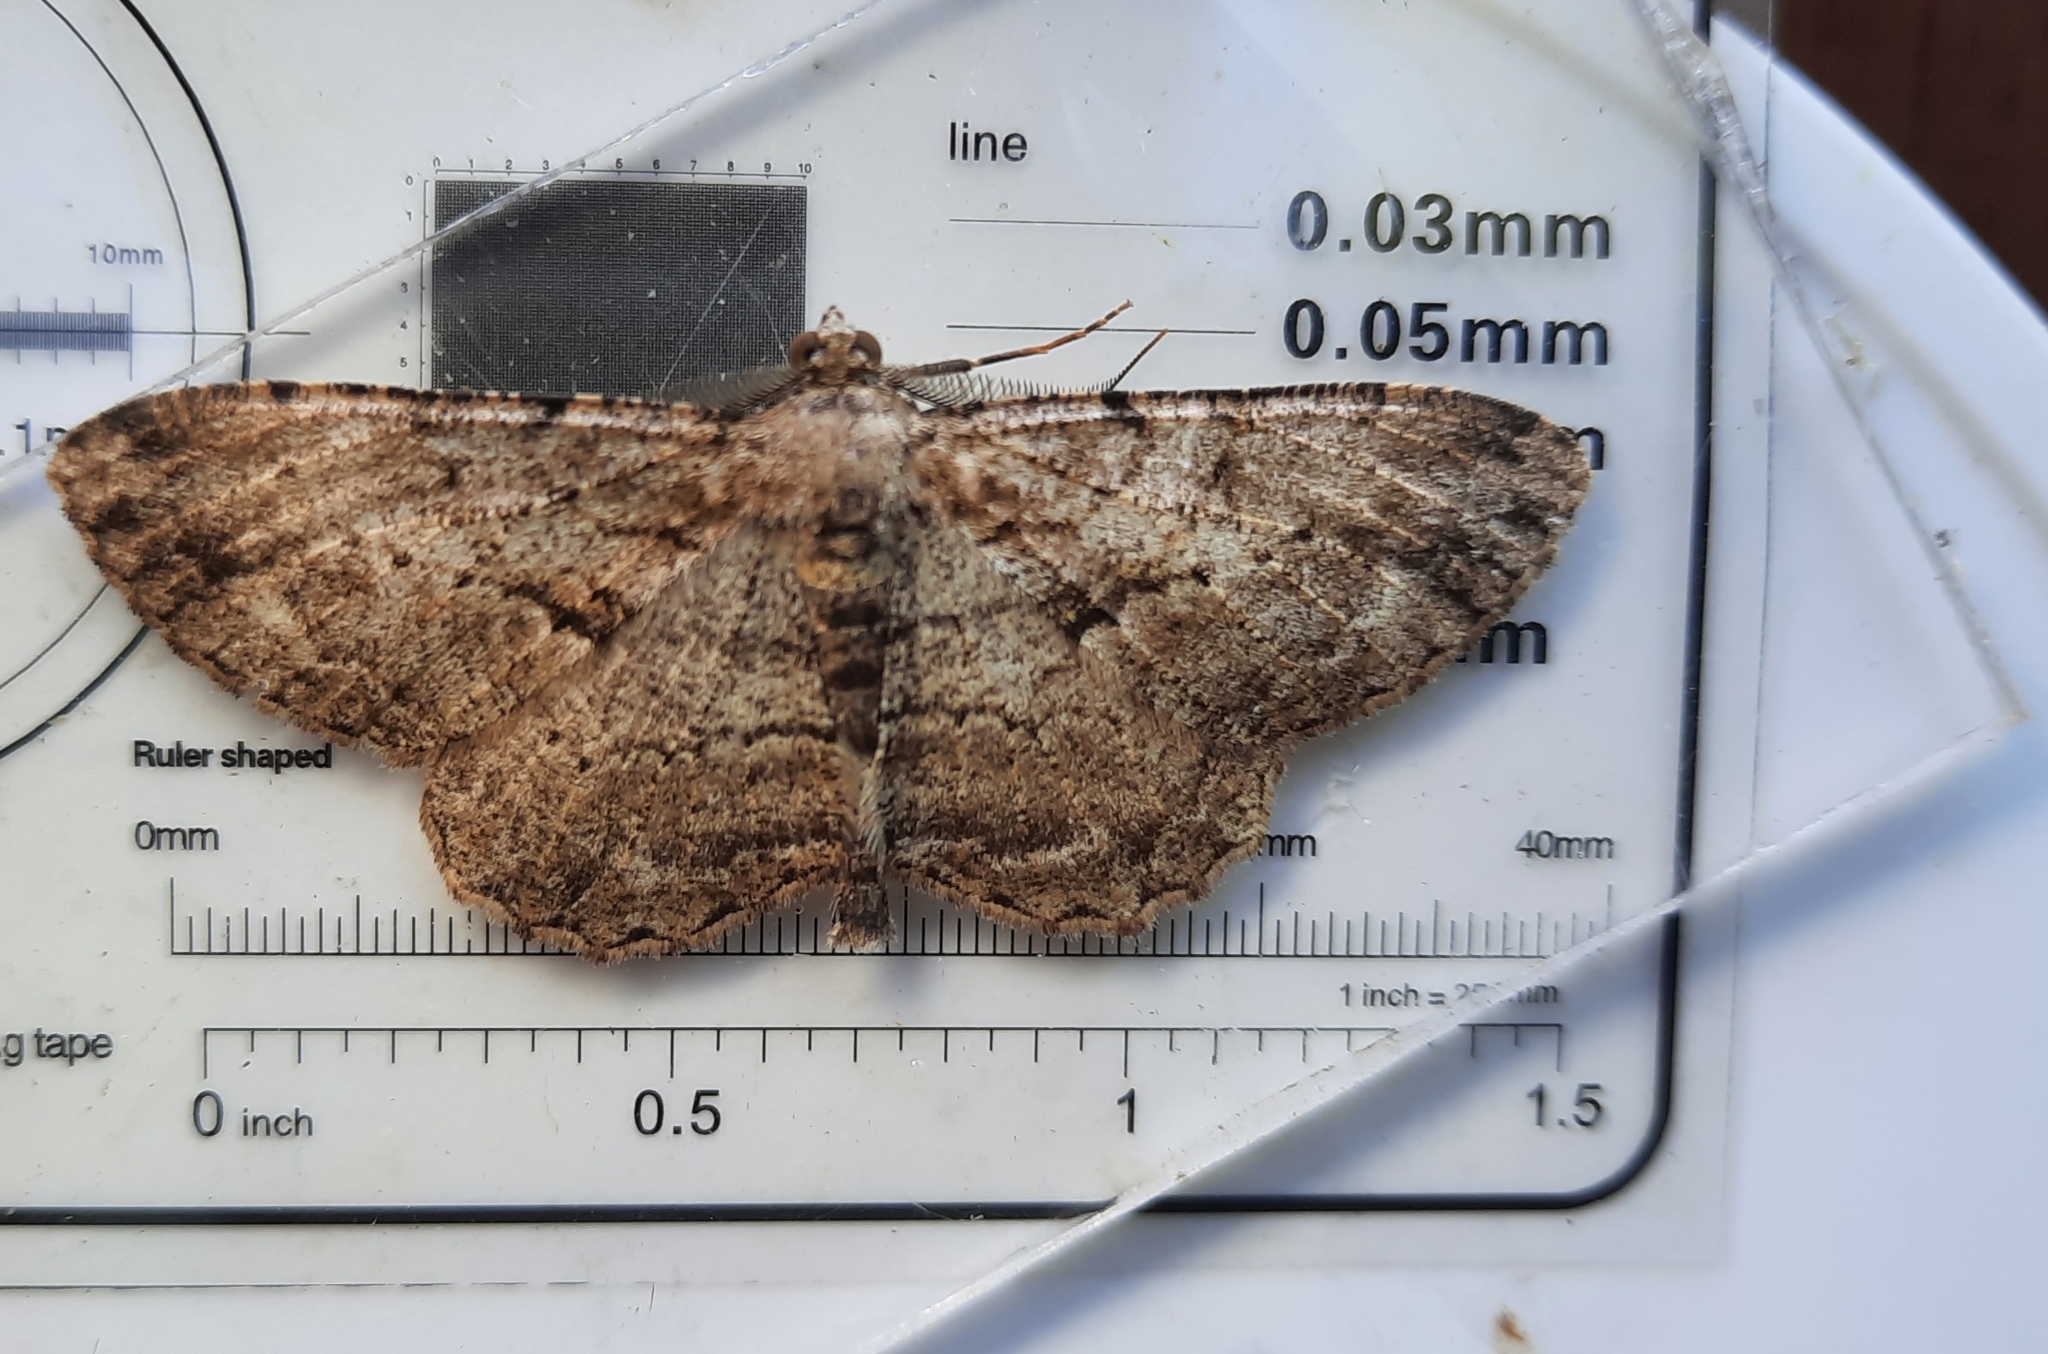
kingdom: Animalia
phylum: Arthropoda
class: Insecta
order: Lepidoptera
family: Geometridae
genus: Peribatodes
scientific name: Peribatodes rhomboidaria
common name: Willow beauty
